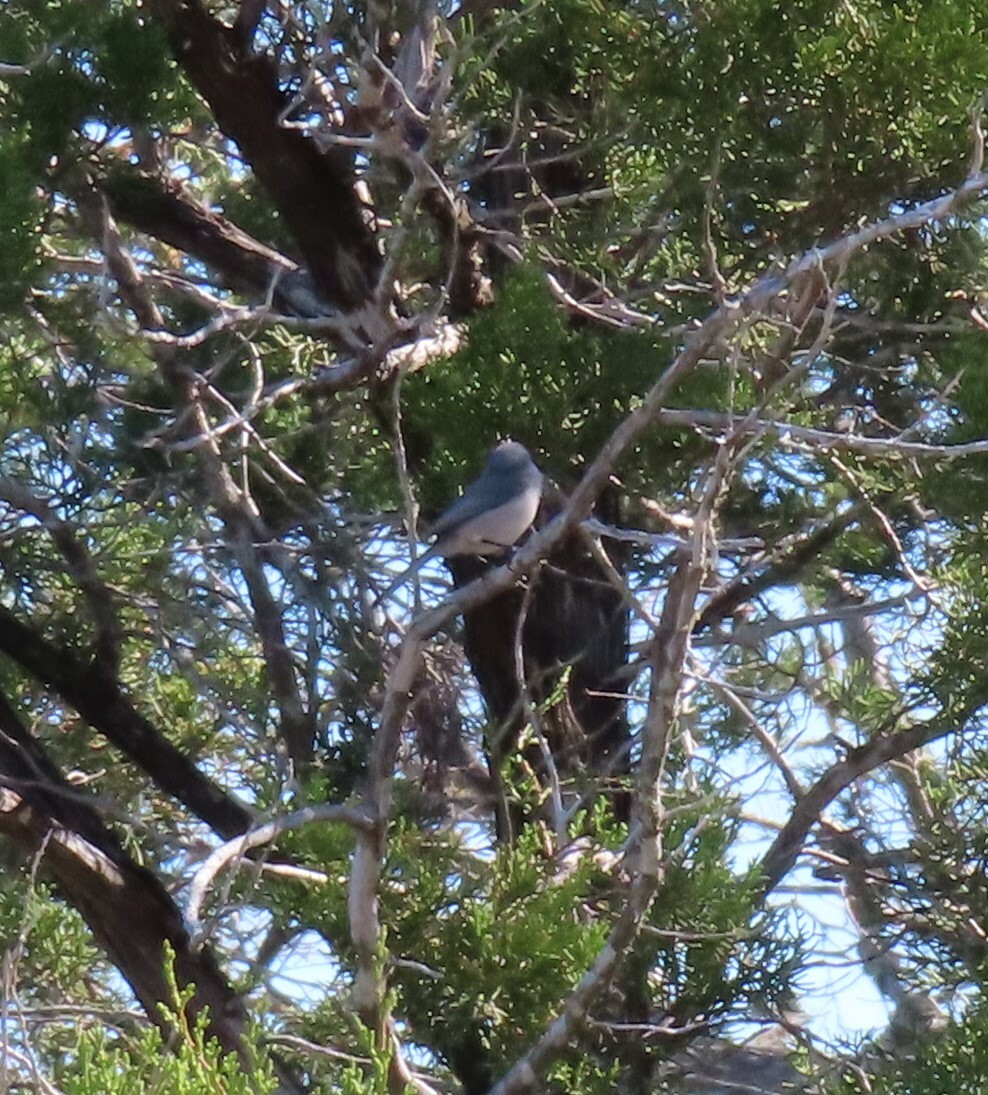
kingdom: Animalia
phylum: Chordata
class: Aves
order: Passeriformes
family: Aegithalidae
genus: Psaltriparus
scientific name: Psaltriparus minimus
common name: American bushtit
